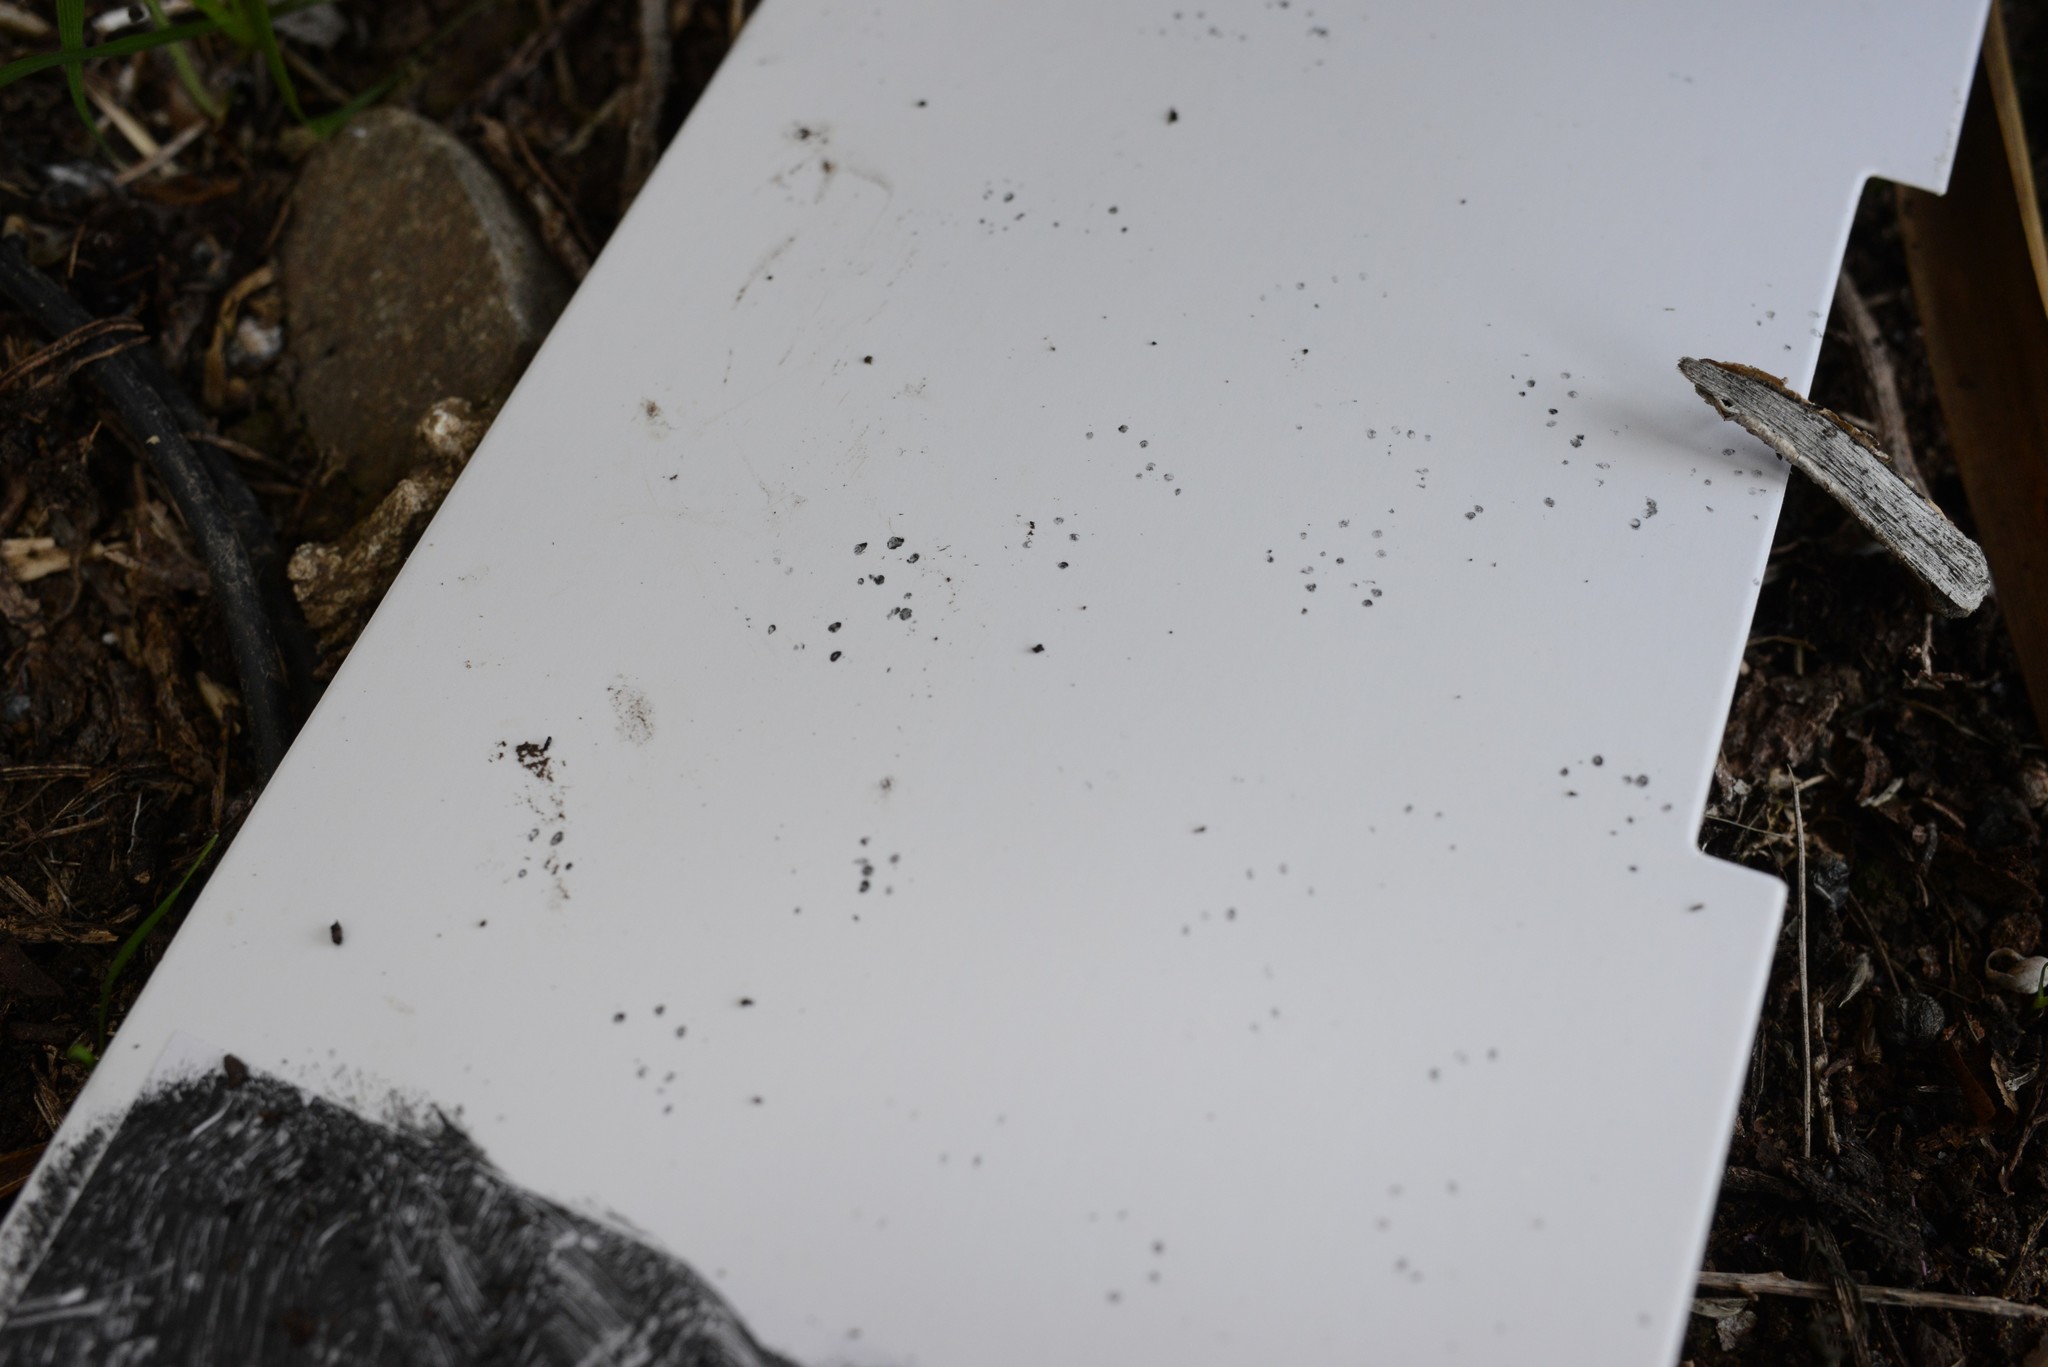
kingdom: Animalia
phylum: Chordata
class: Mammalia
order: Rodentia
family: Muridae
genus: Mus
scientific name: Mus musculus
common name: House mouse
